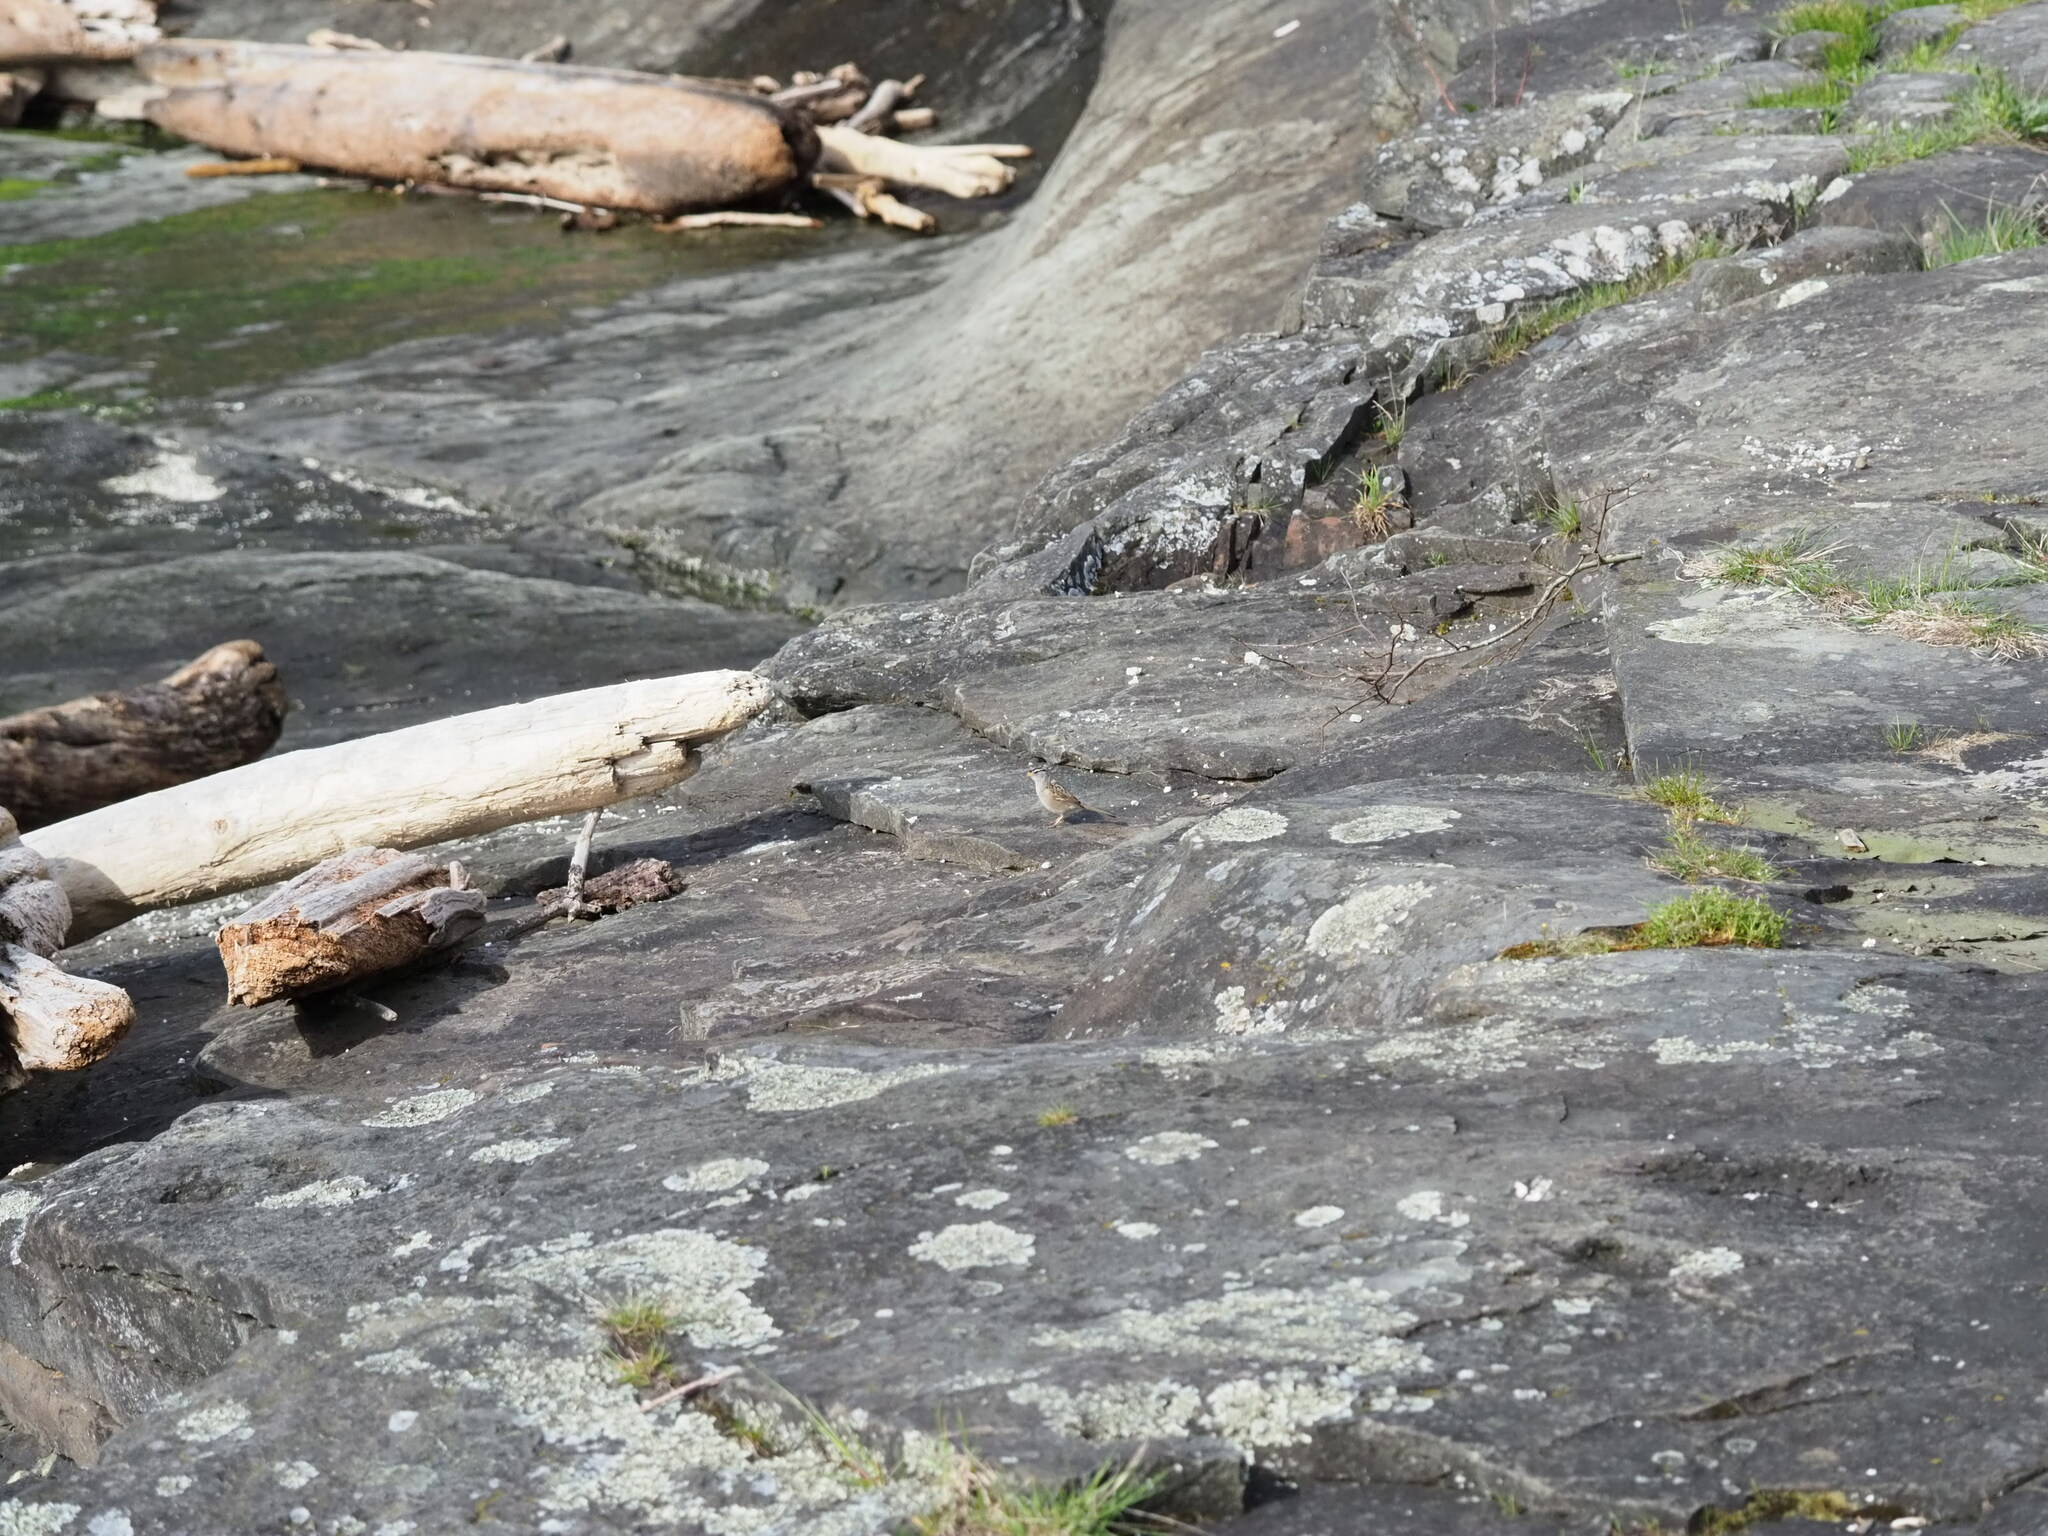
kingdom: Animalia
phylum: Chordata
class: Aves
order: Passeriformes
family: Passerellidae
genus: Zonotrichia
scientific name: Zonotrichia leucophrys
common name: White-crowned sparrow
